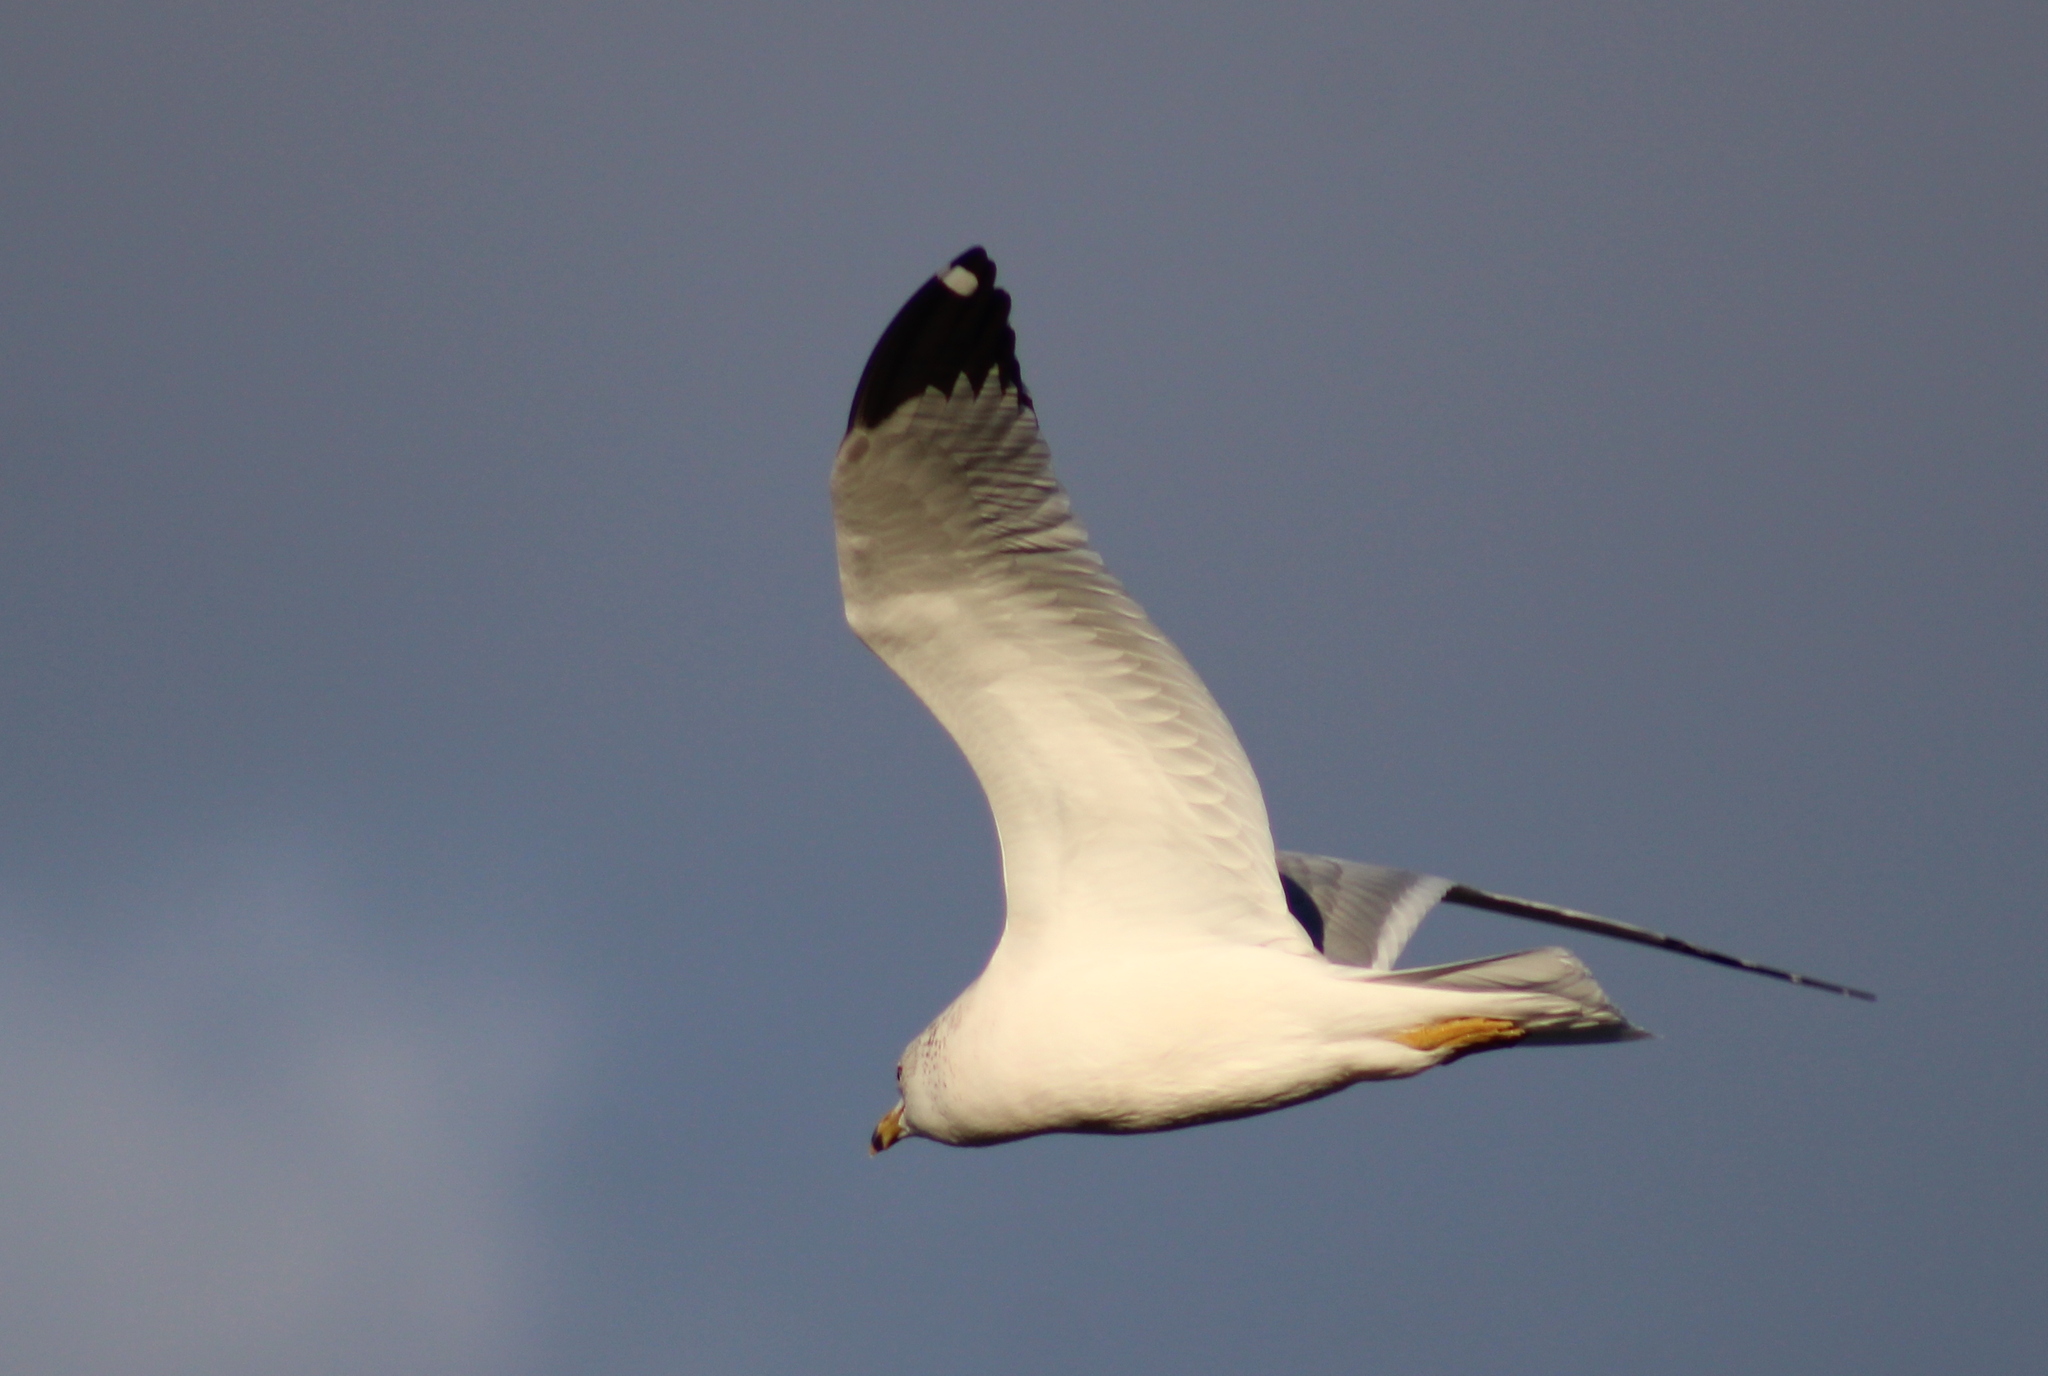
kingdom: Animalia
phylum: Chordata
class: Aves
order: Charadriiformes
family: Laridae
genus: Larus
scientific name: Larus delawarensis
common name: Ring-billed gull
